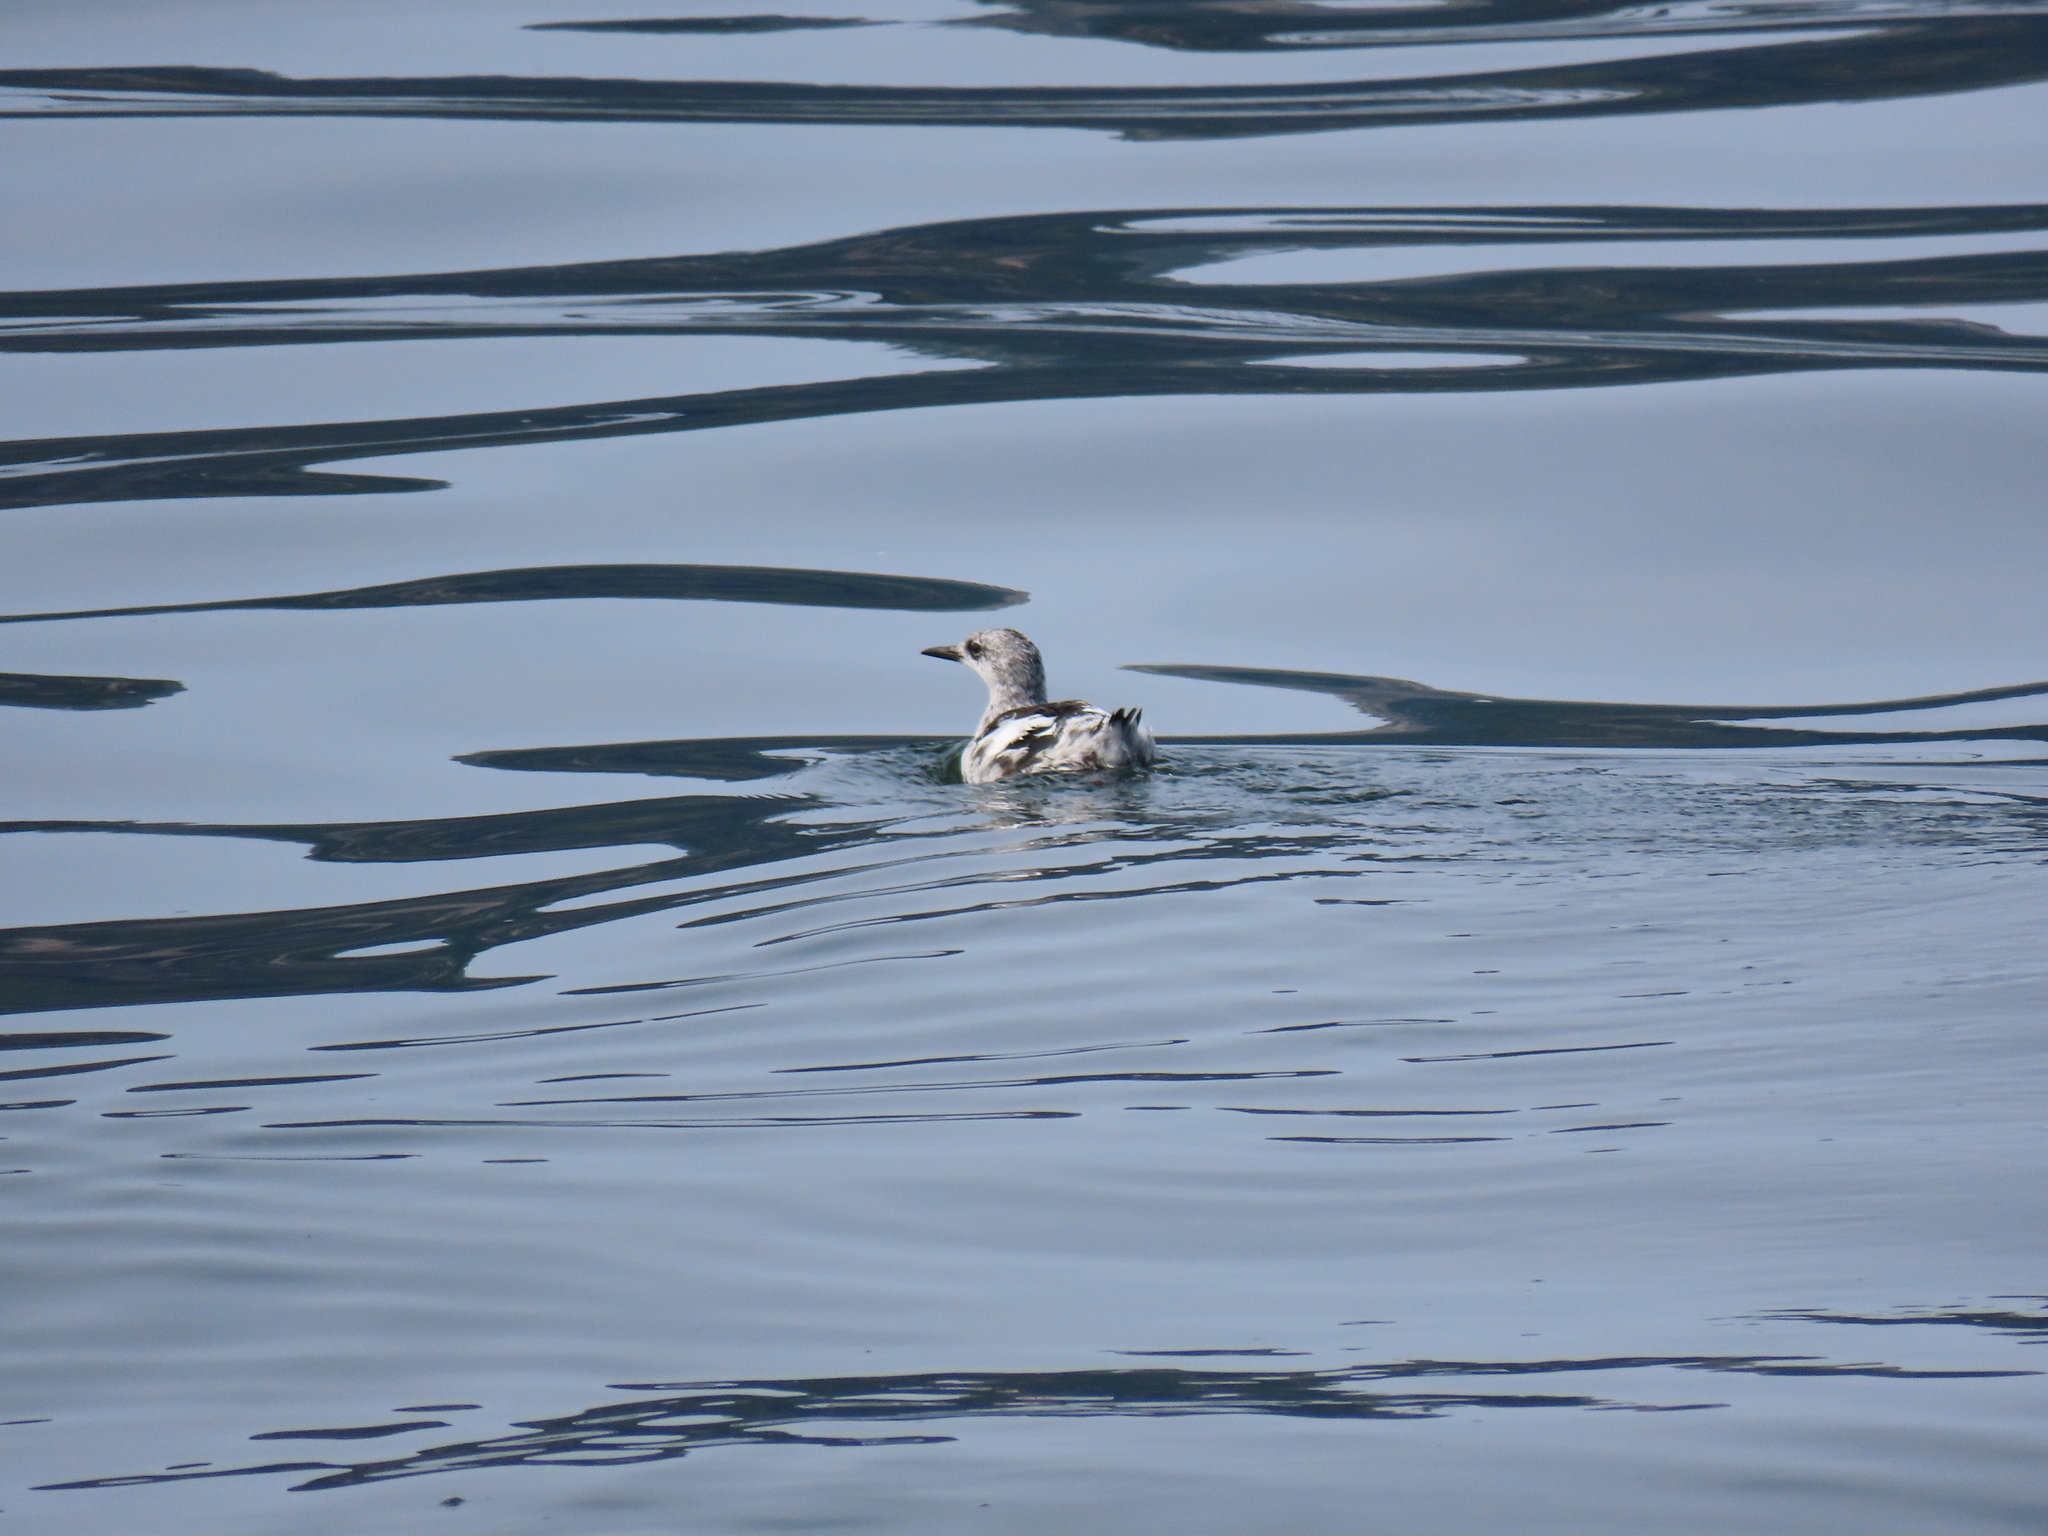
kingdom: Animalia
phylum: Chordata
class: Aves
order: Charadriiformes
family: Alcidae
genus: Cepphus
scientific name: Cepphus grylle
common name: Black guillemot
